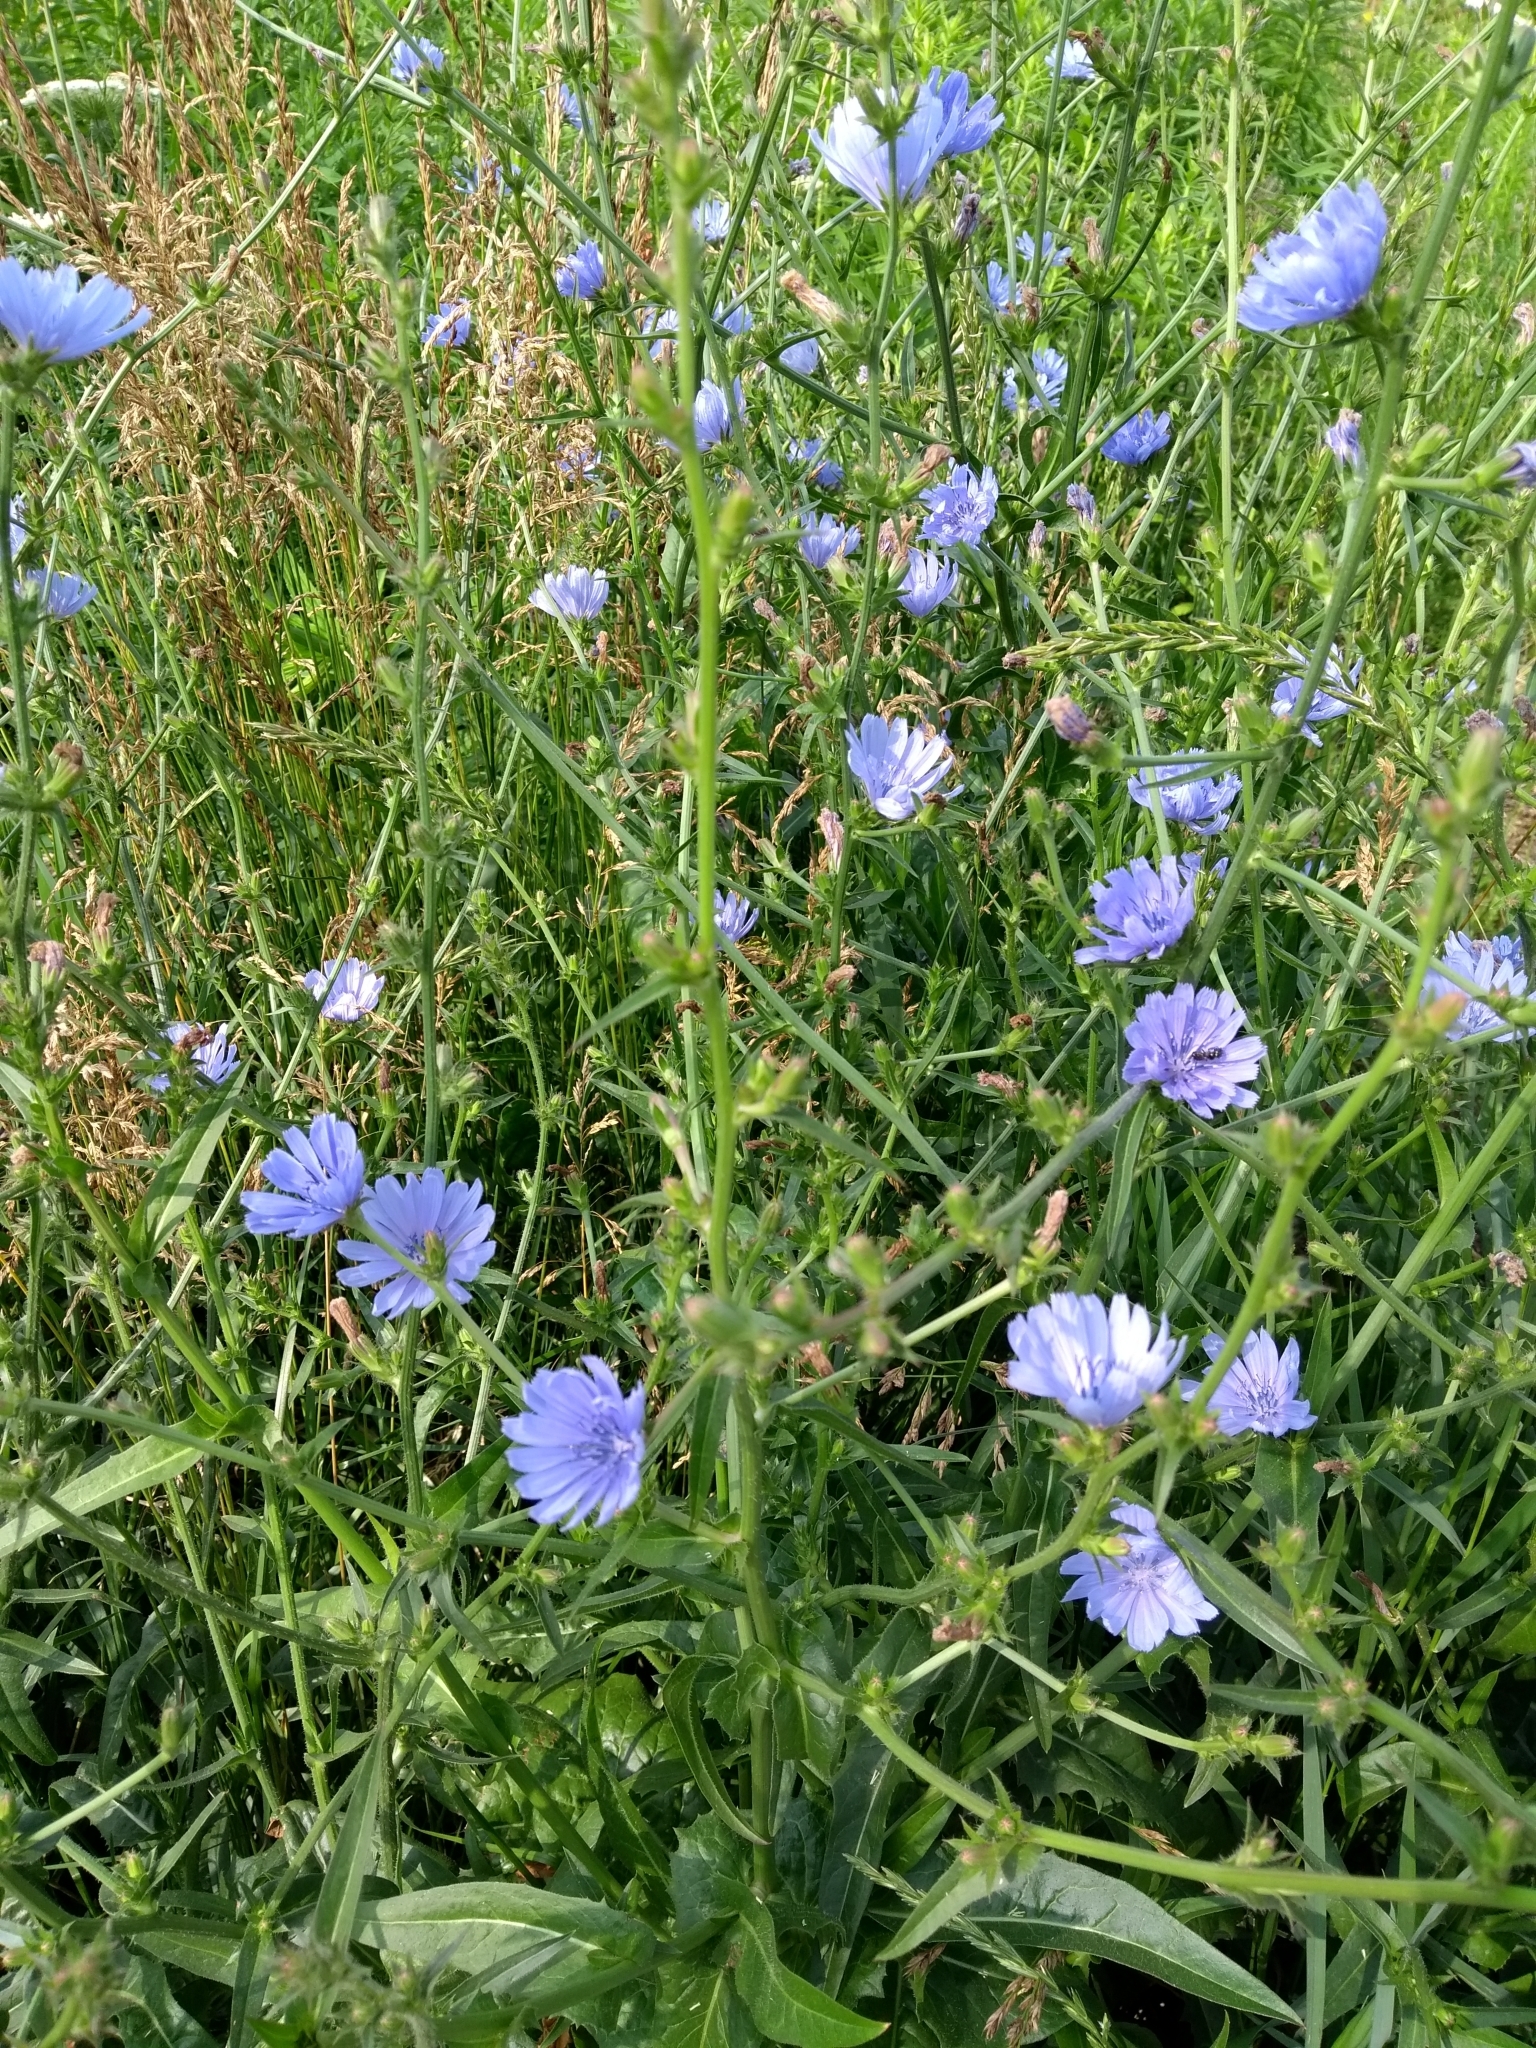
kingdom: Plantae
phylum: Tracheophyta
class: Magnoliopsida
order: Asterales
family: Asteraceae
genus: Cichorium
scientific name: Cichorium intybus
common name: Chicory
